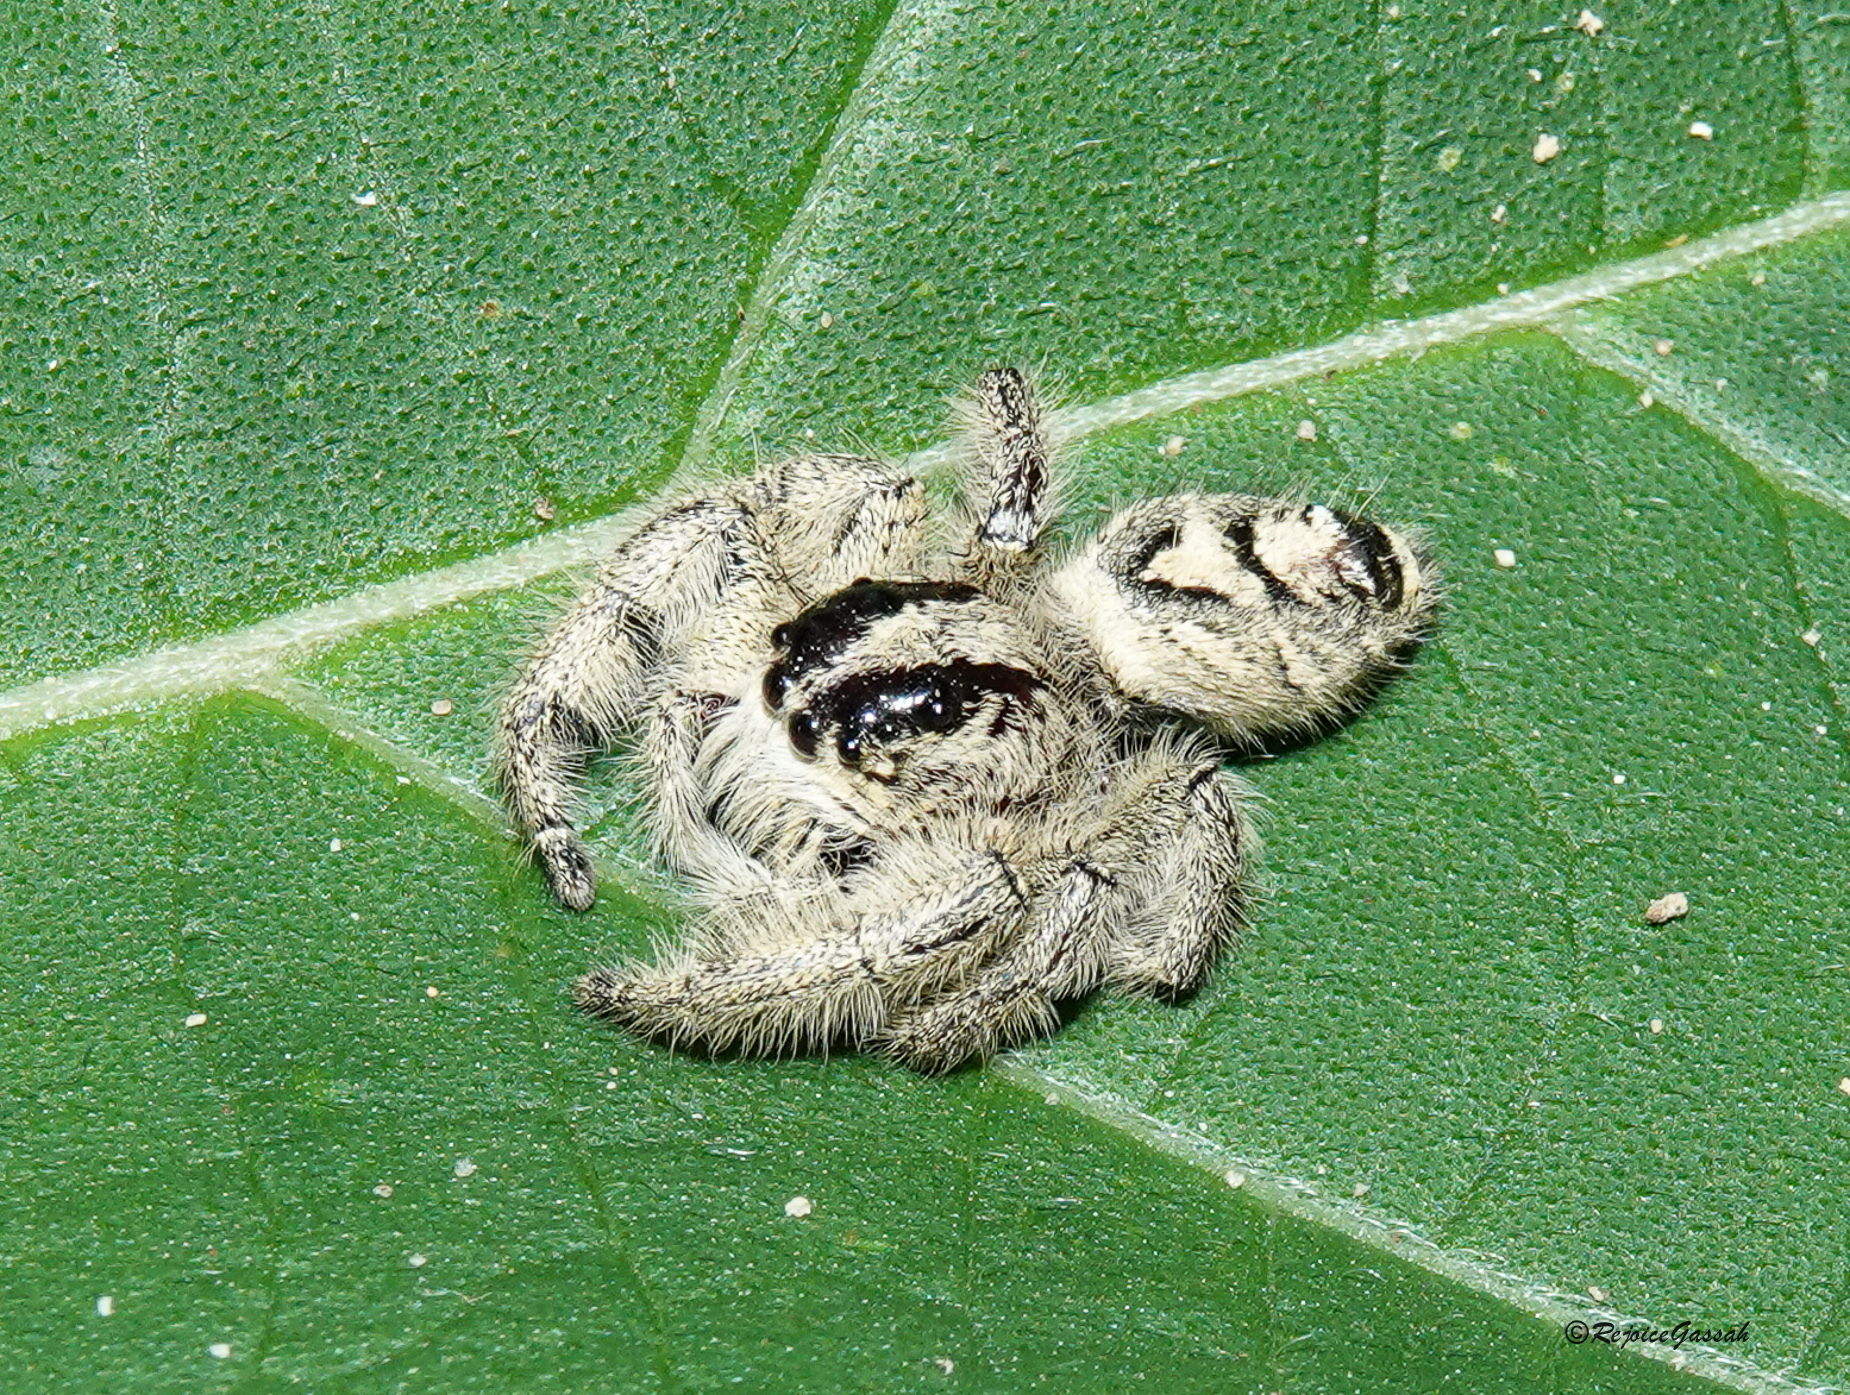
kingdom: Animalia
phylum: Arthropoda
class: Arachnida
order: Araneae
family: Salticidae
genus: Hyllus
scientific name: Hyllus diardi
